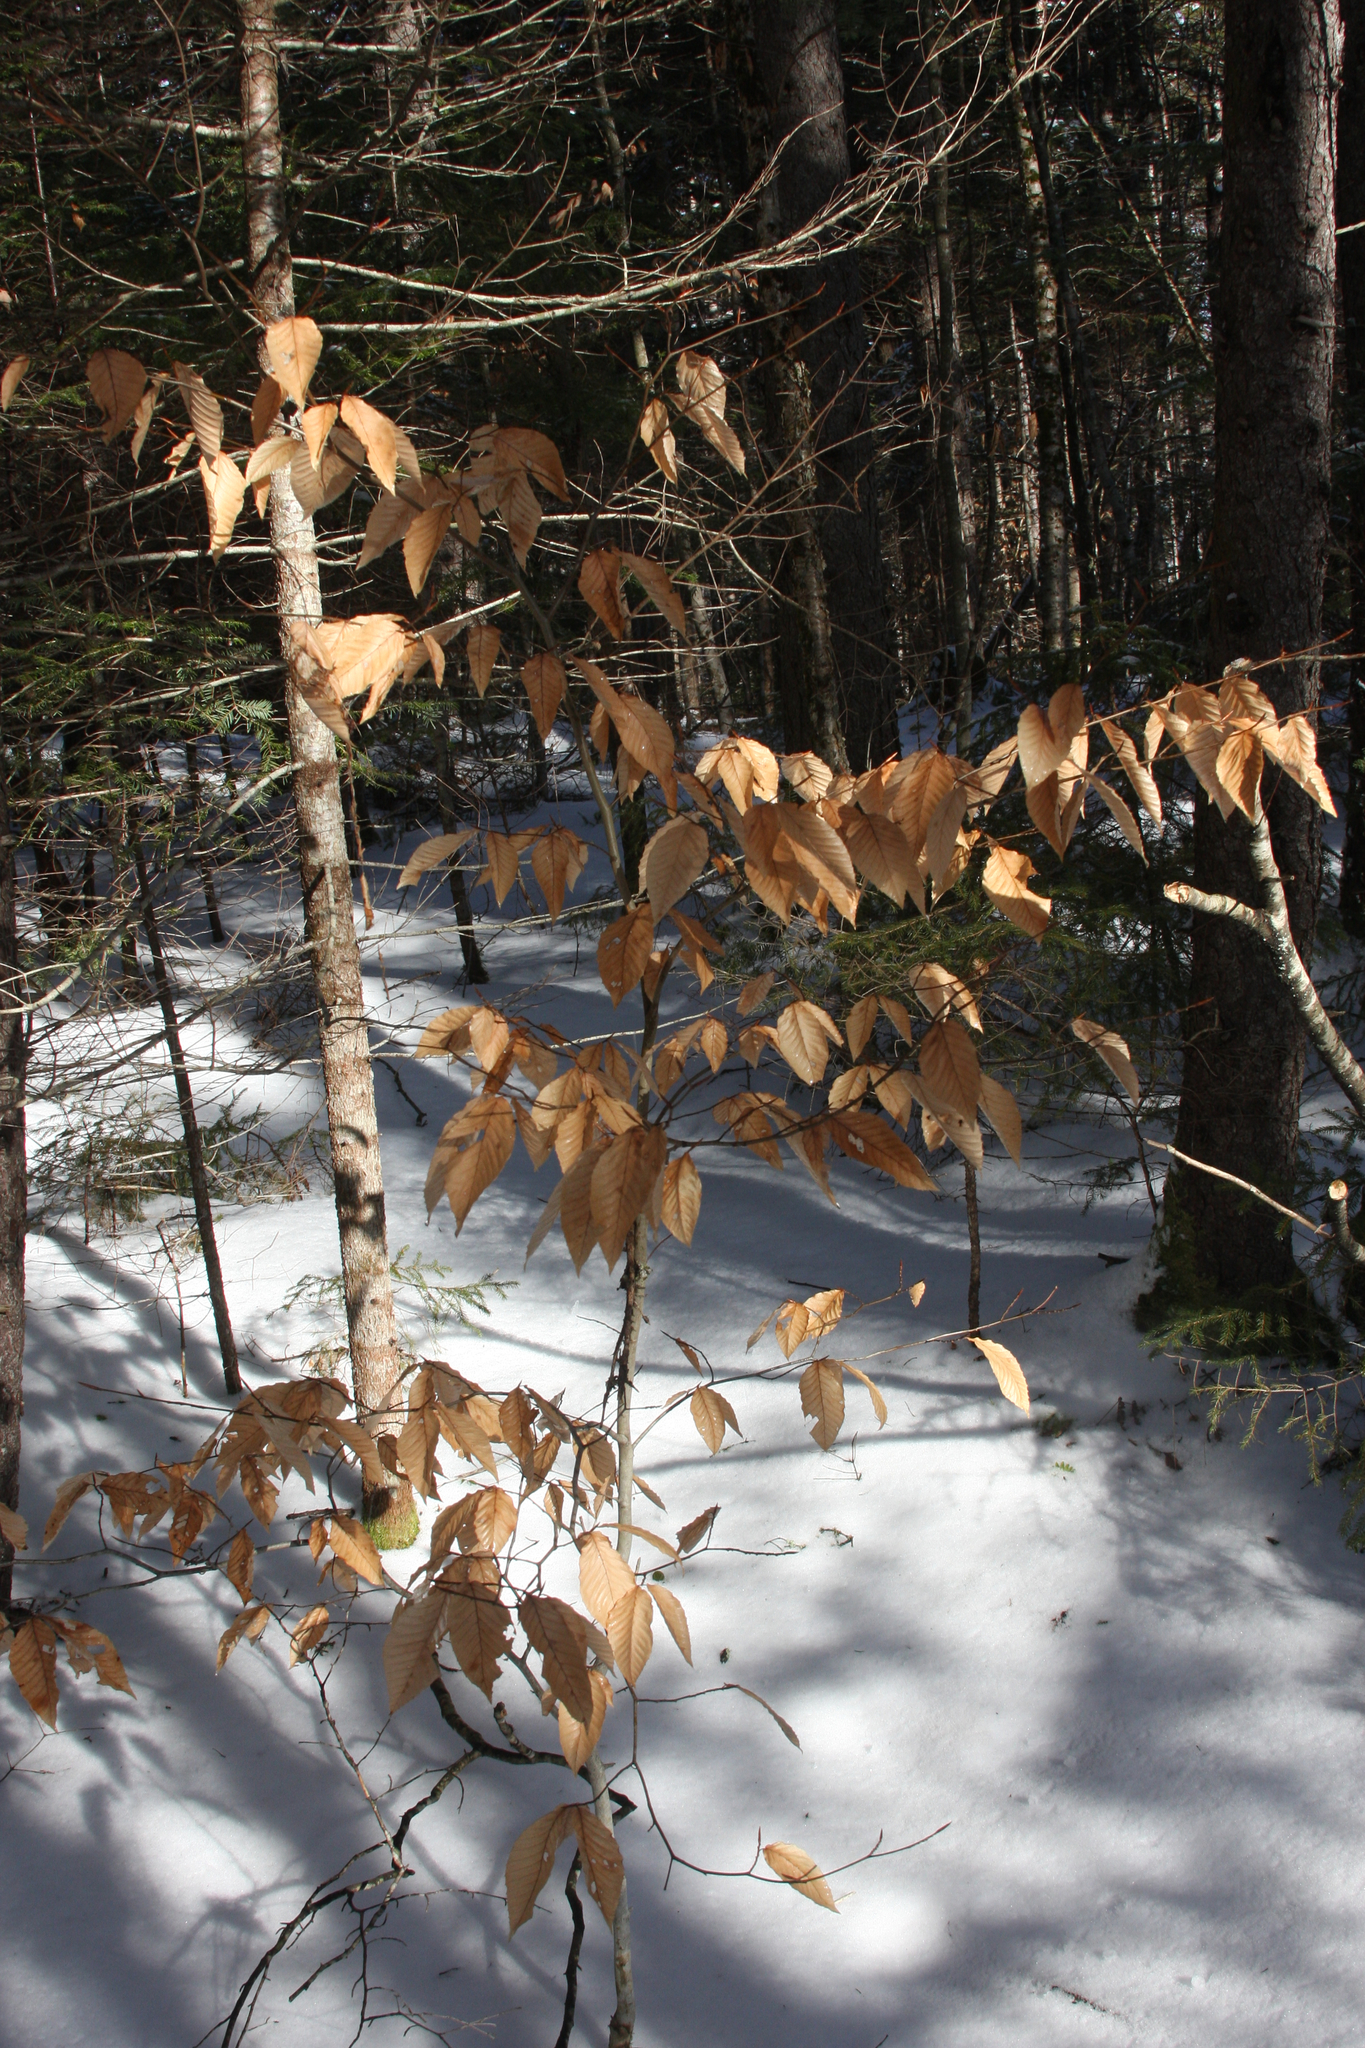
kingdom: Plantae
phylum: Tracheophyta
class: Magnoliopsida
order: Fagales
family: Fagaceae
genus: Fagus
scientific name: Fagus grandifolia
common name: American beech
